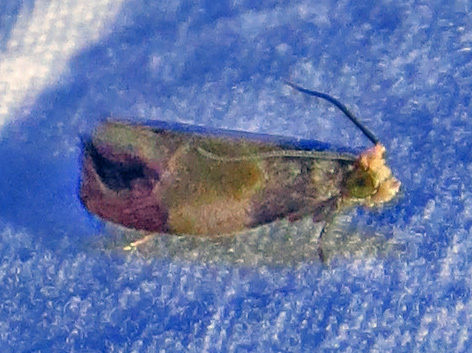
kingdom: Animalia
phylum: Arthropoda
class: Insecta
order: Lepidoptera
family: Tortricidae
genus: Eumarozia
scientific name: Eumarozia malachitana
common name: Sculptured moth
